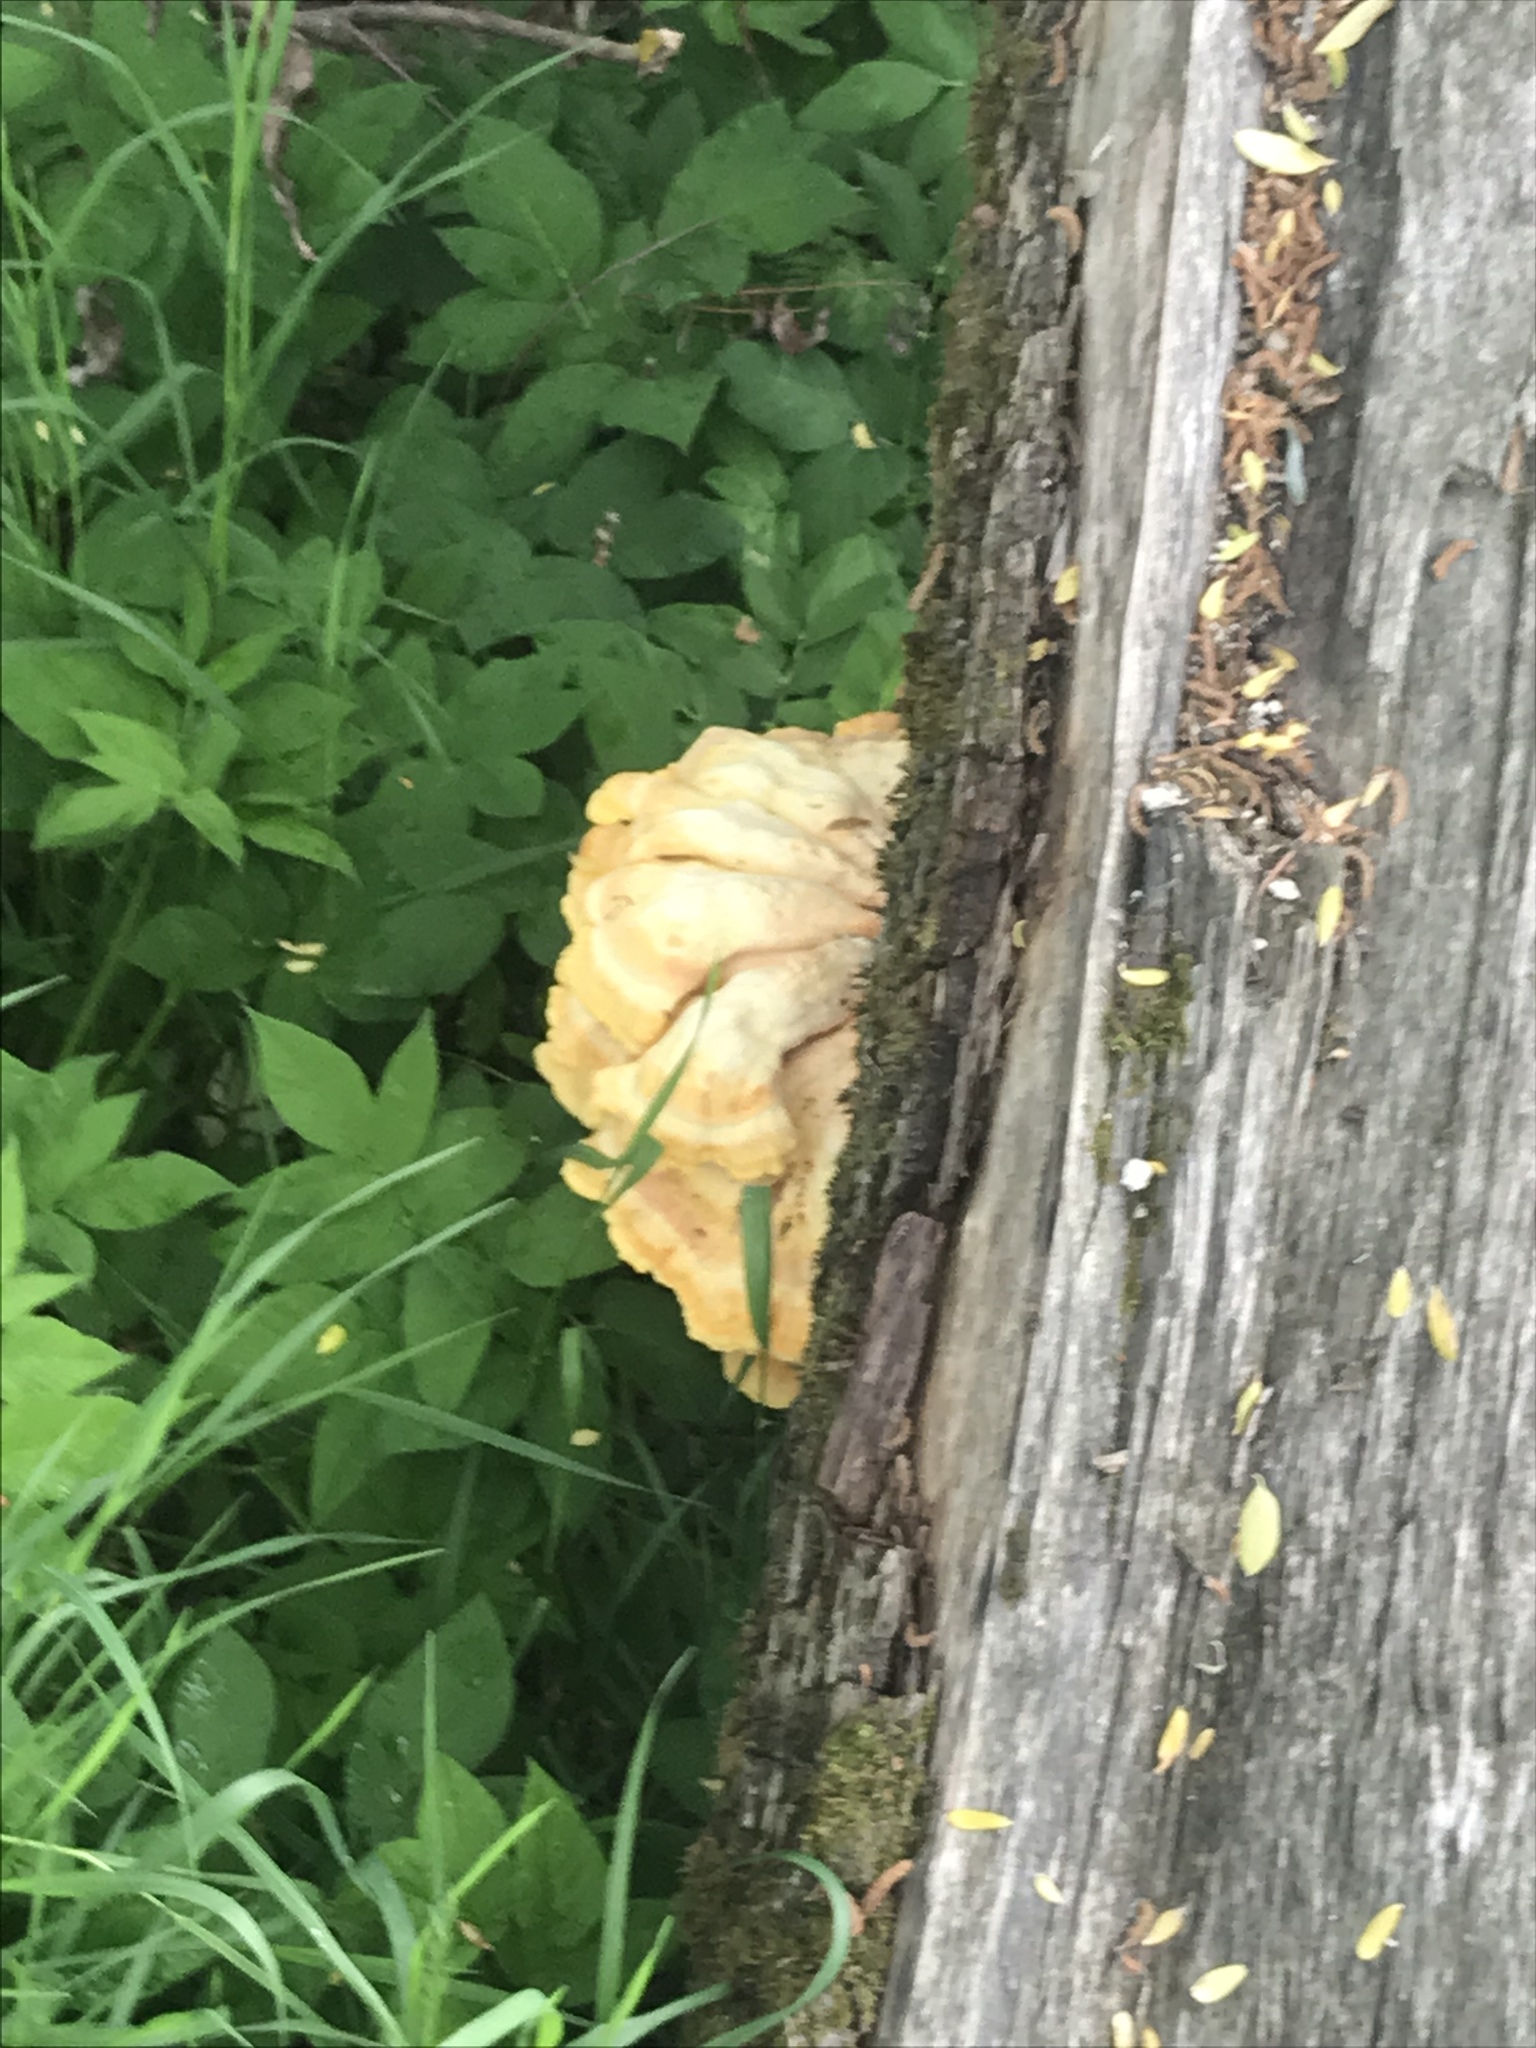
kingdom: Fungi
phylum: Basidiomycota
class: Agaricomycetes
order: Polyporales
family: Laetiporaceae
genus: Laetiporus
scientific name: Laetiporus sulphureus
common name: Chicken of the woods
